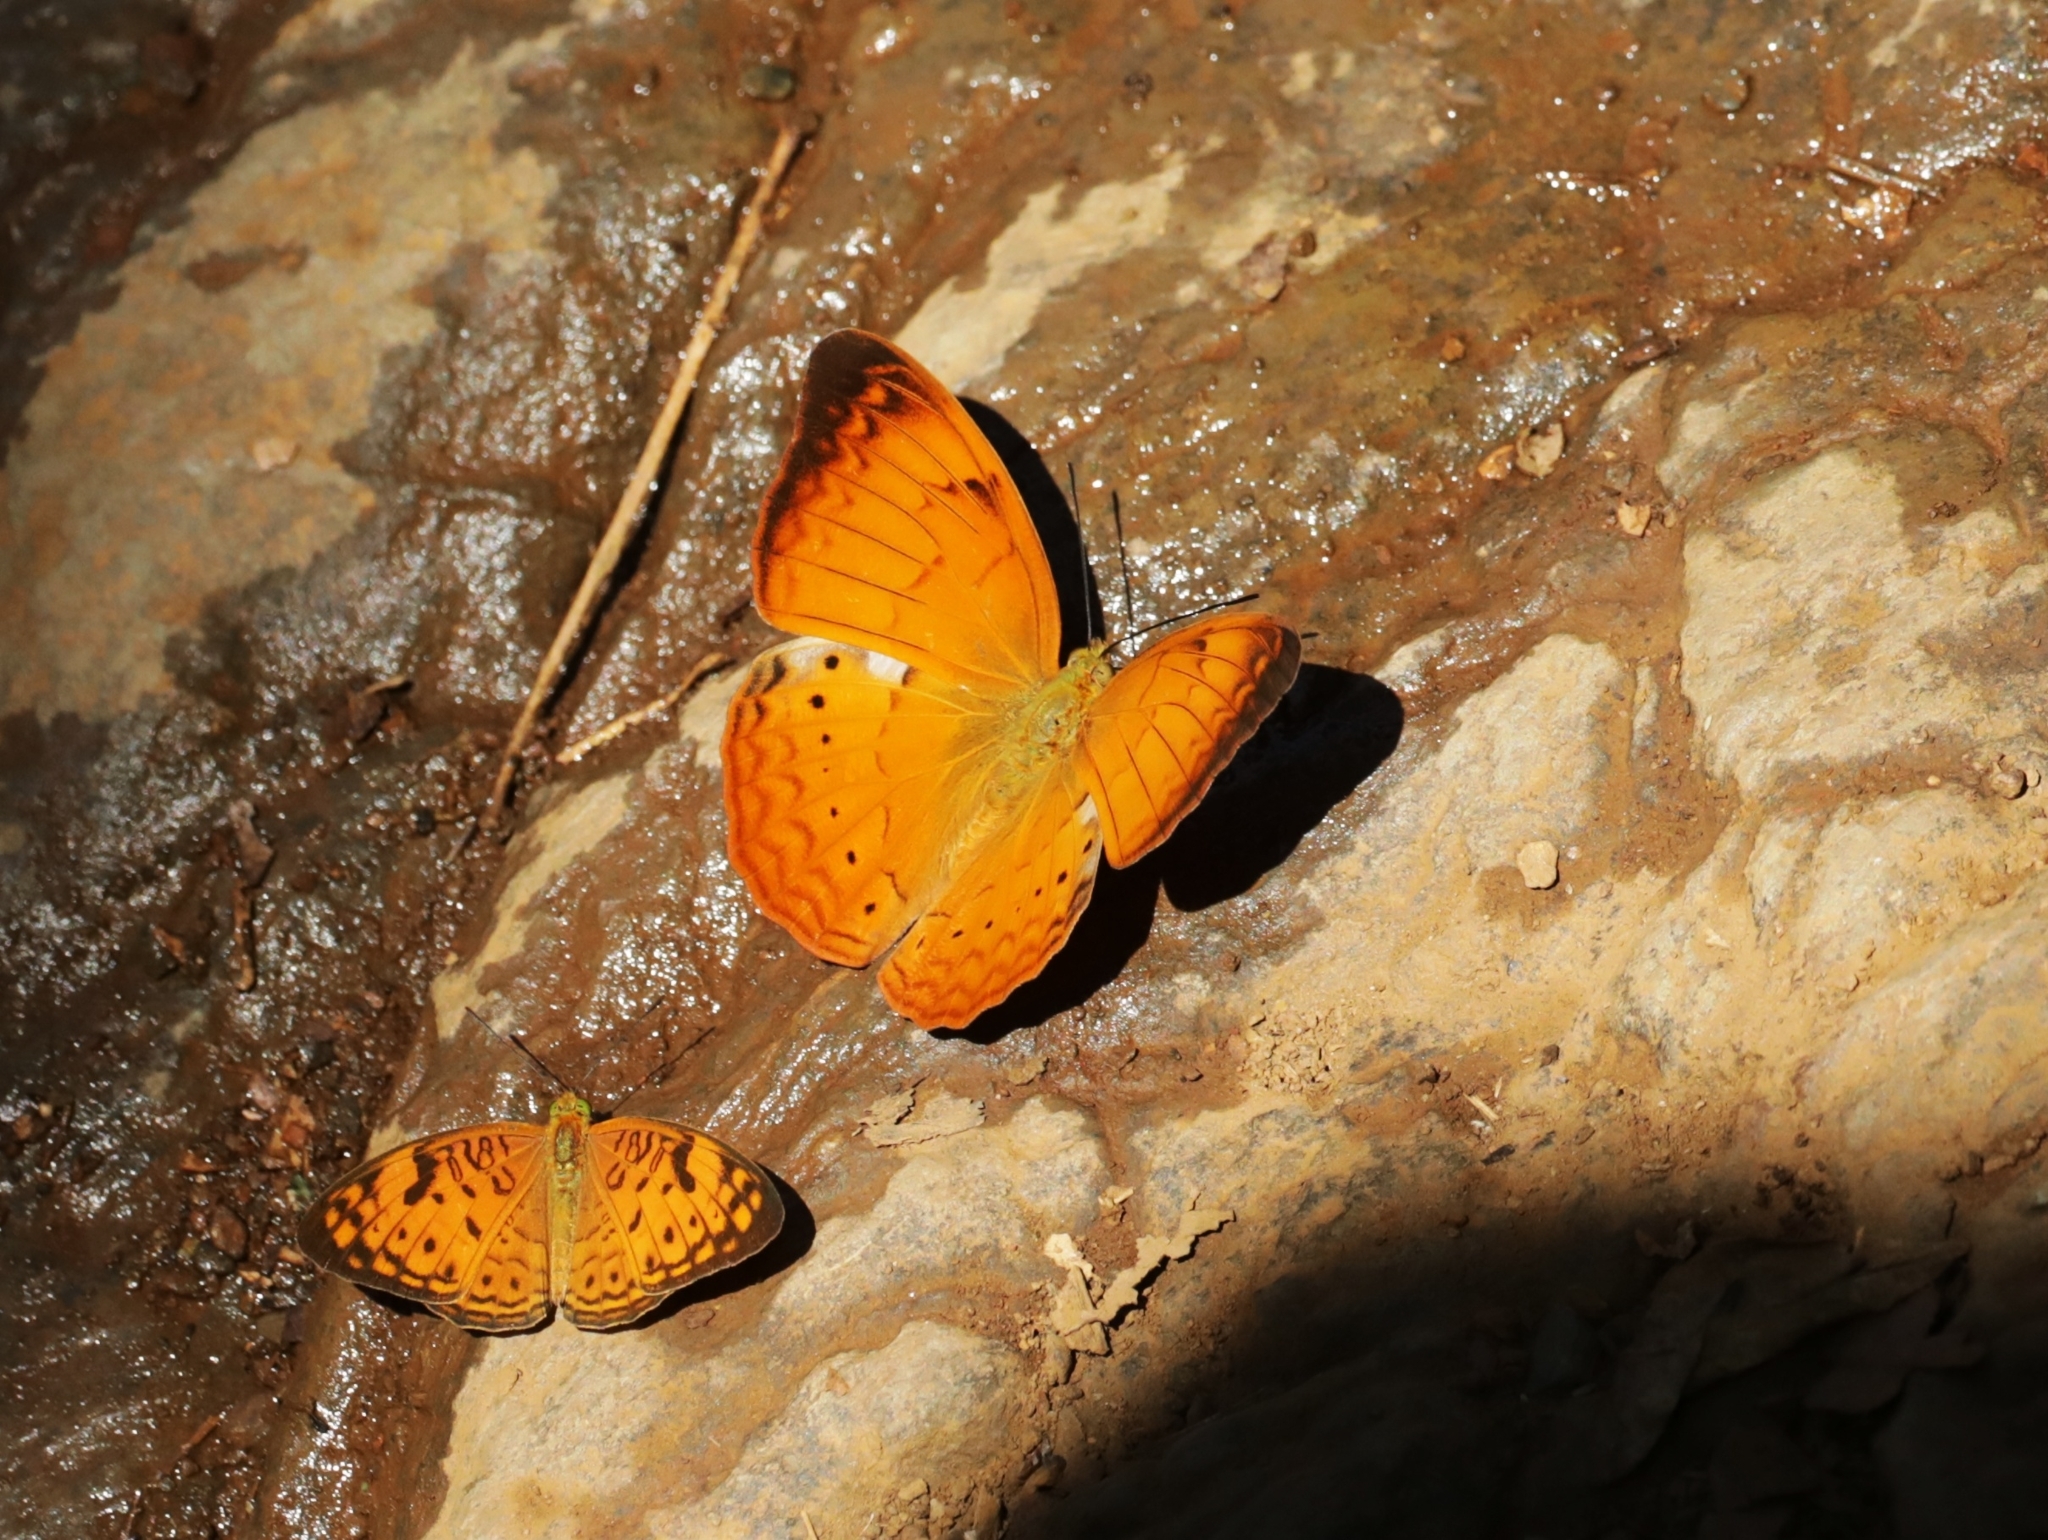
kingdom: Animalia
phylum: Arthropoda
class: Insecta
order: Lepidoptera
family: Nymphalidae
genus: Cirrochroa
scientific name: Cirrochroa thais
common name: Tamil yeoman
